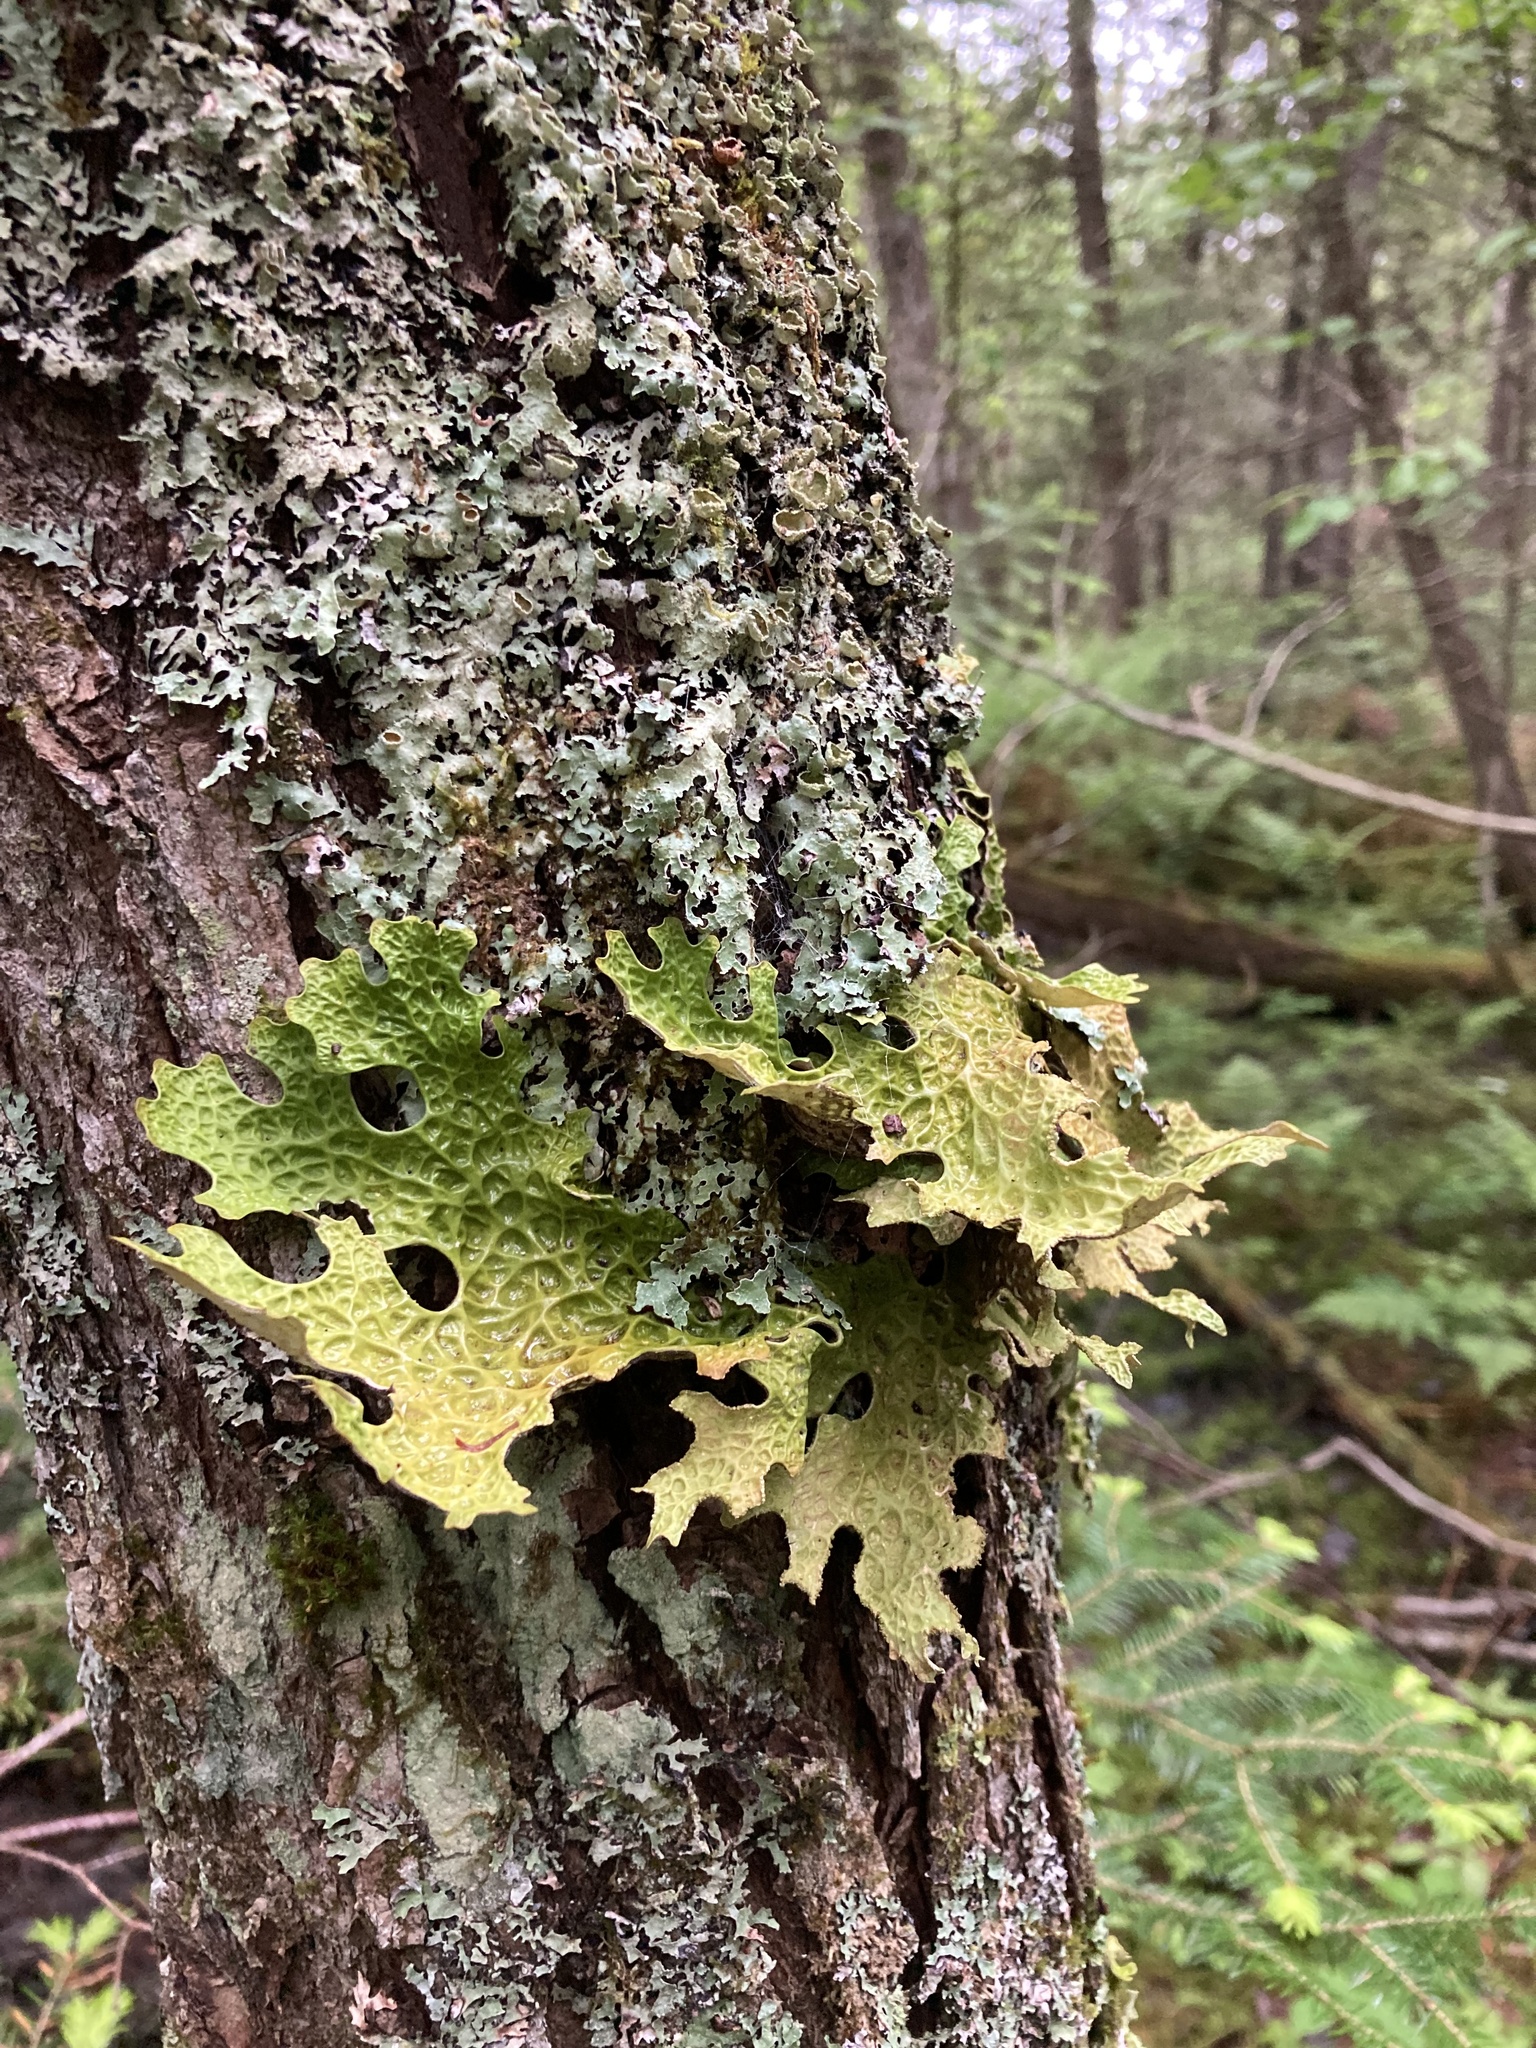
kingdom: Fungi
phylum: Ascomycota
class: Lecanoromycetes
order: Peltigerales
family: Lobariaceae
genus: Lobaria
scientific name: Lobaria pulmonaria
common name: Lungwort
